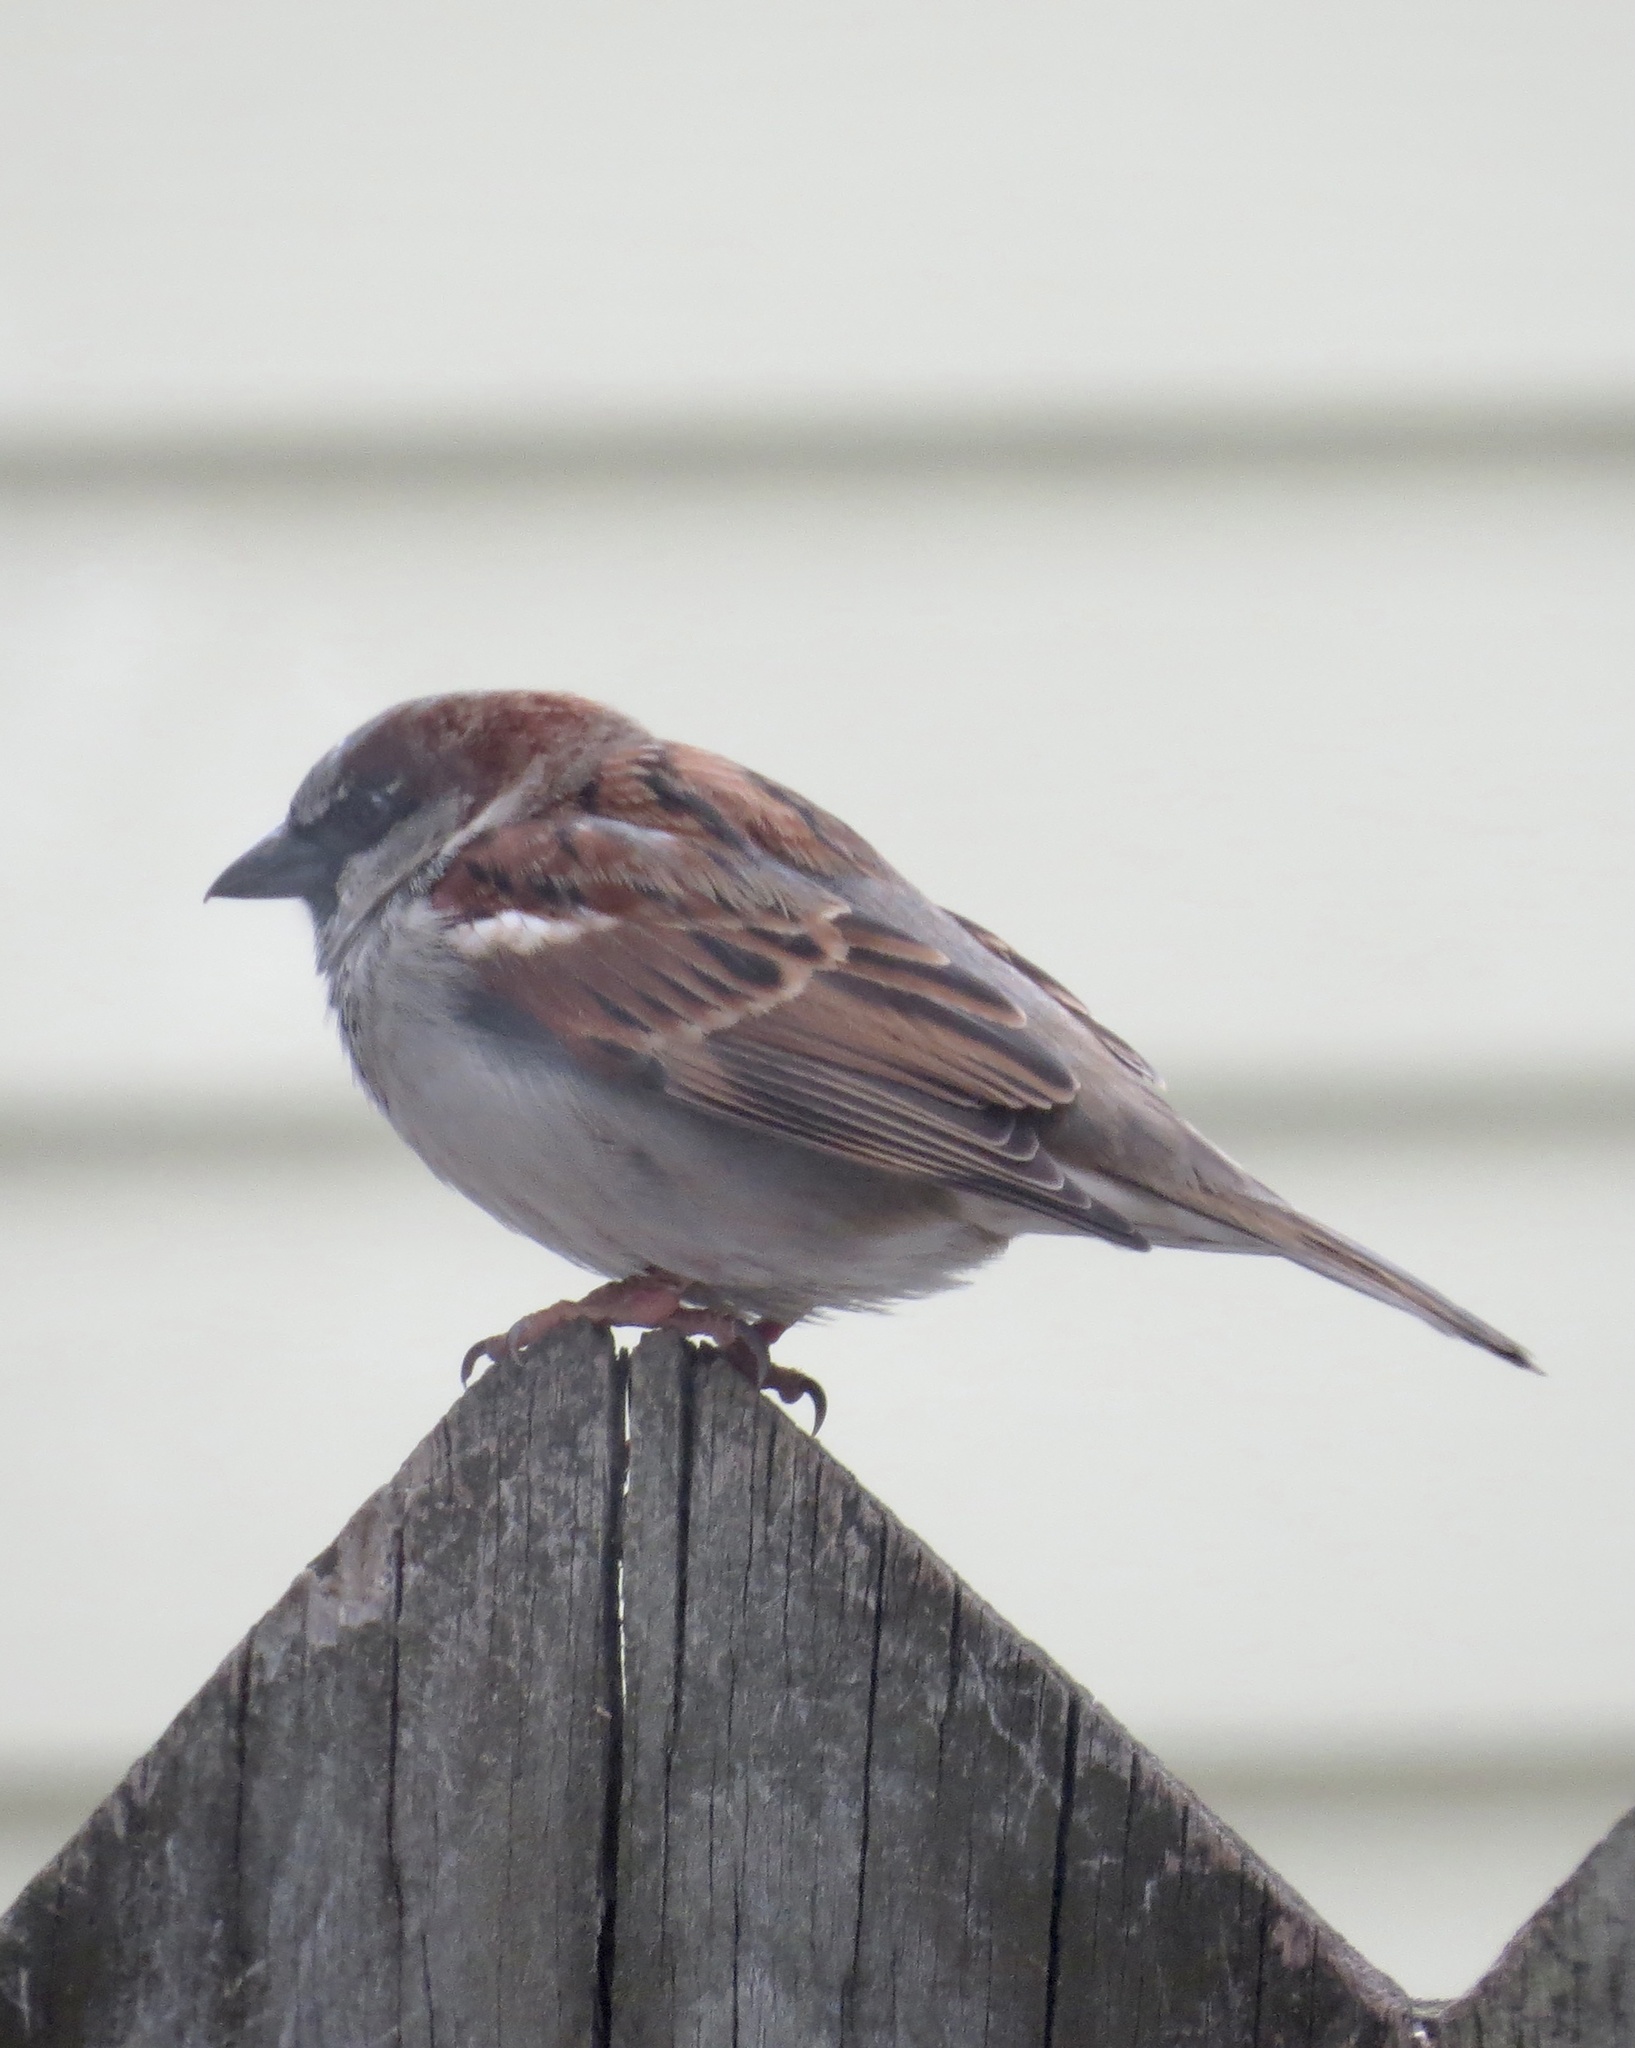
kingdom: Animalia
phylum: Chordata
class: Aves
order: Passeriformes
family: Passeridae
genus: Passer
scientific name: Passer domesticus
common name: House sparrow
